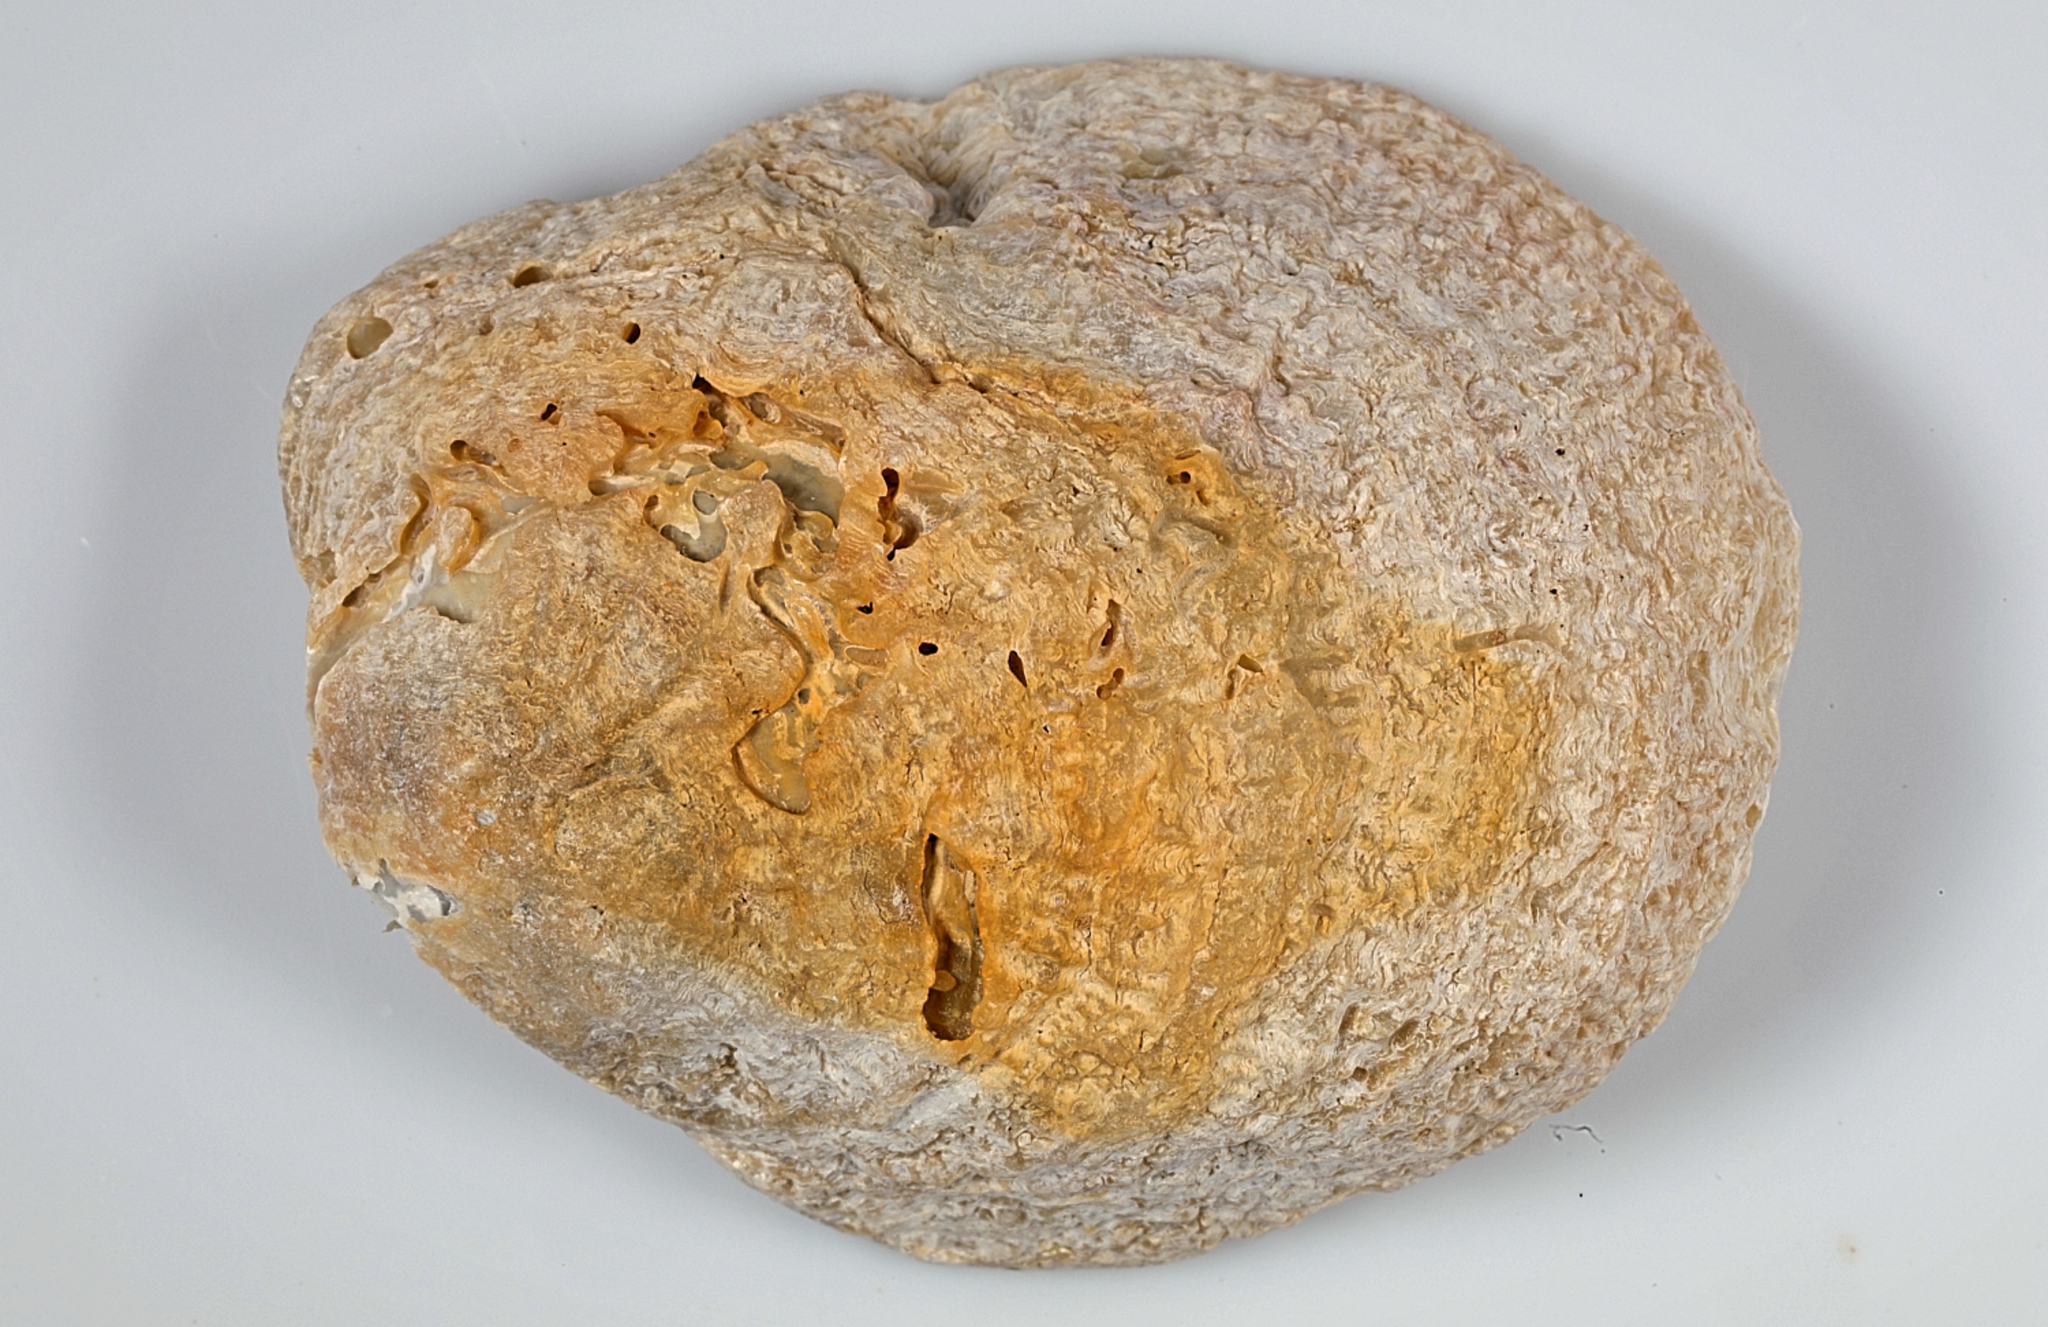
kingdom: Animalia
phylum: Mollusca
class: Bivalvia
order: Pectinida
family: Anomiidae
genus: Pododesmus
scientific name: Pododesmus patelliformis
